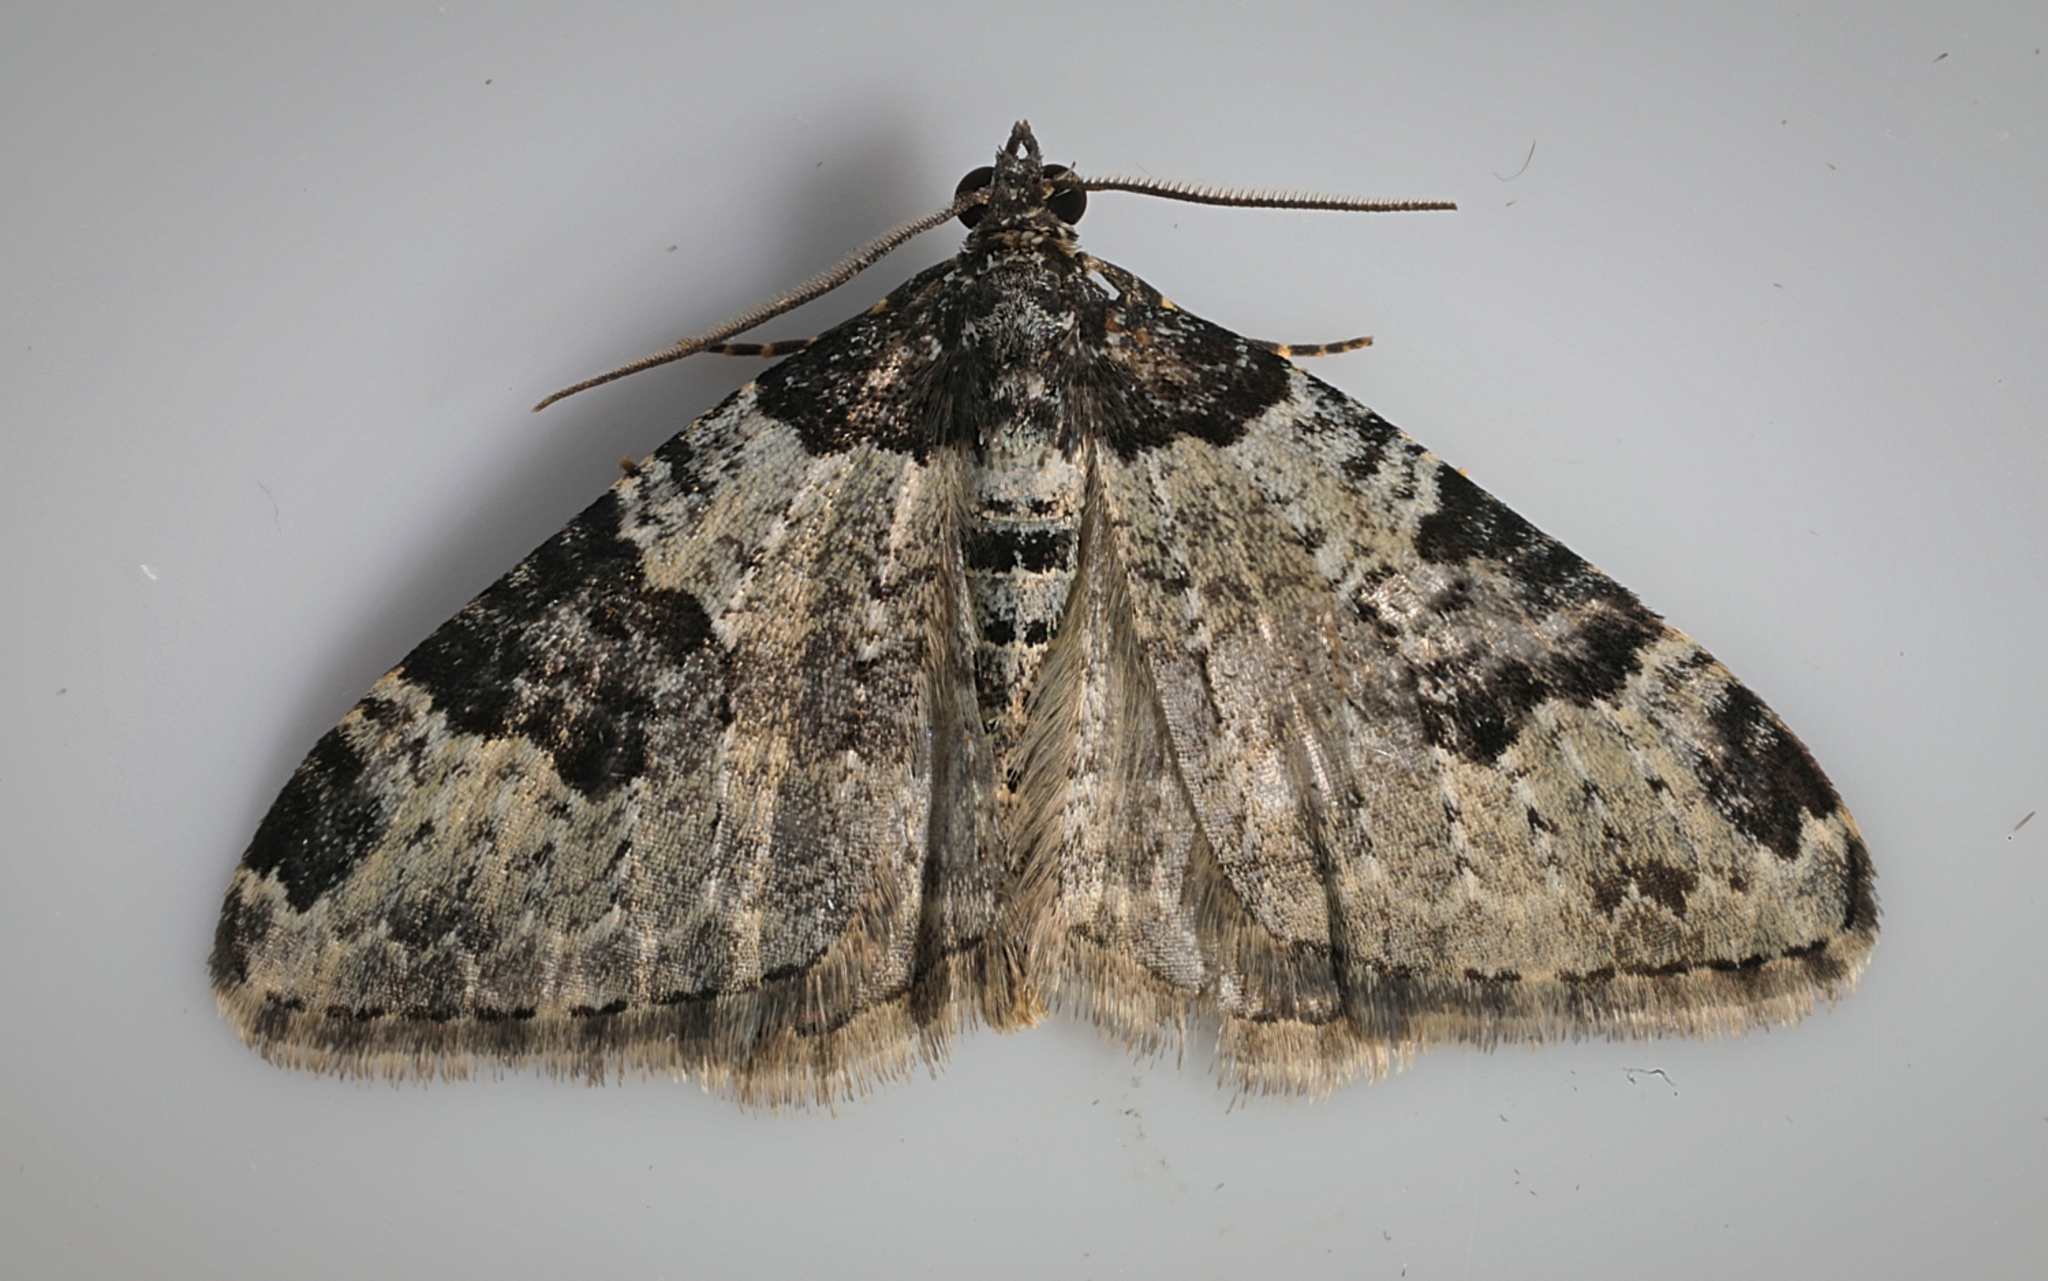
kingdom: Animalia
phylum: Arthropoda
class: Insecta
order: Lepidoptera
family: Geometridae
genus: Xanthorhoe
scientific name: Xanthorhoe fluctuata
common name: Garden carpet
